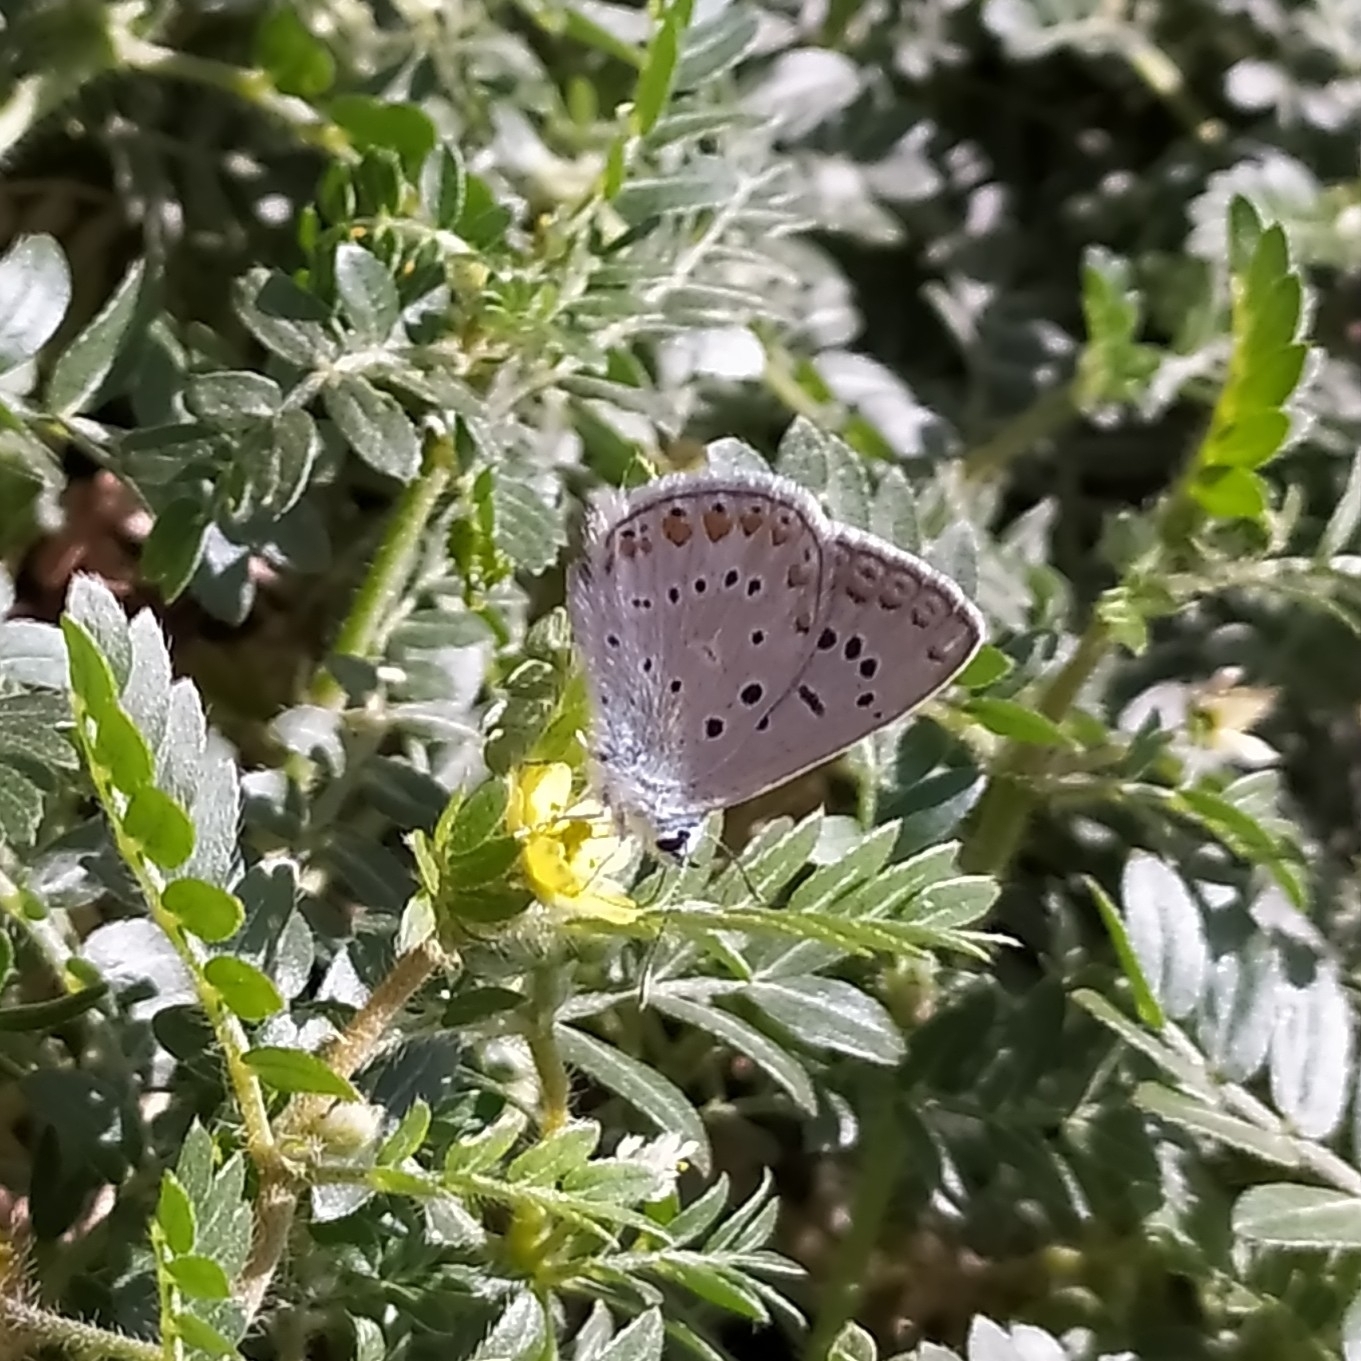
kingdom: Animalia
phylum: Arthropoda
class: Insecta
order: Lepidoptera
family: Lycaenidae
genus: Polyommatus
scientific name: Polyommatus icarus
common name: Common blue
